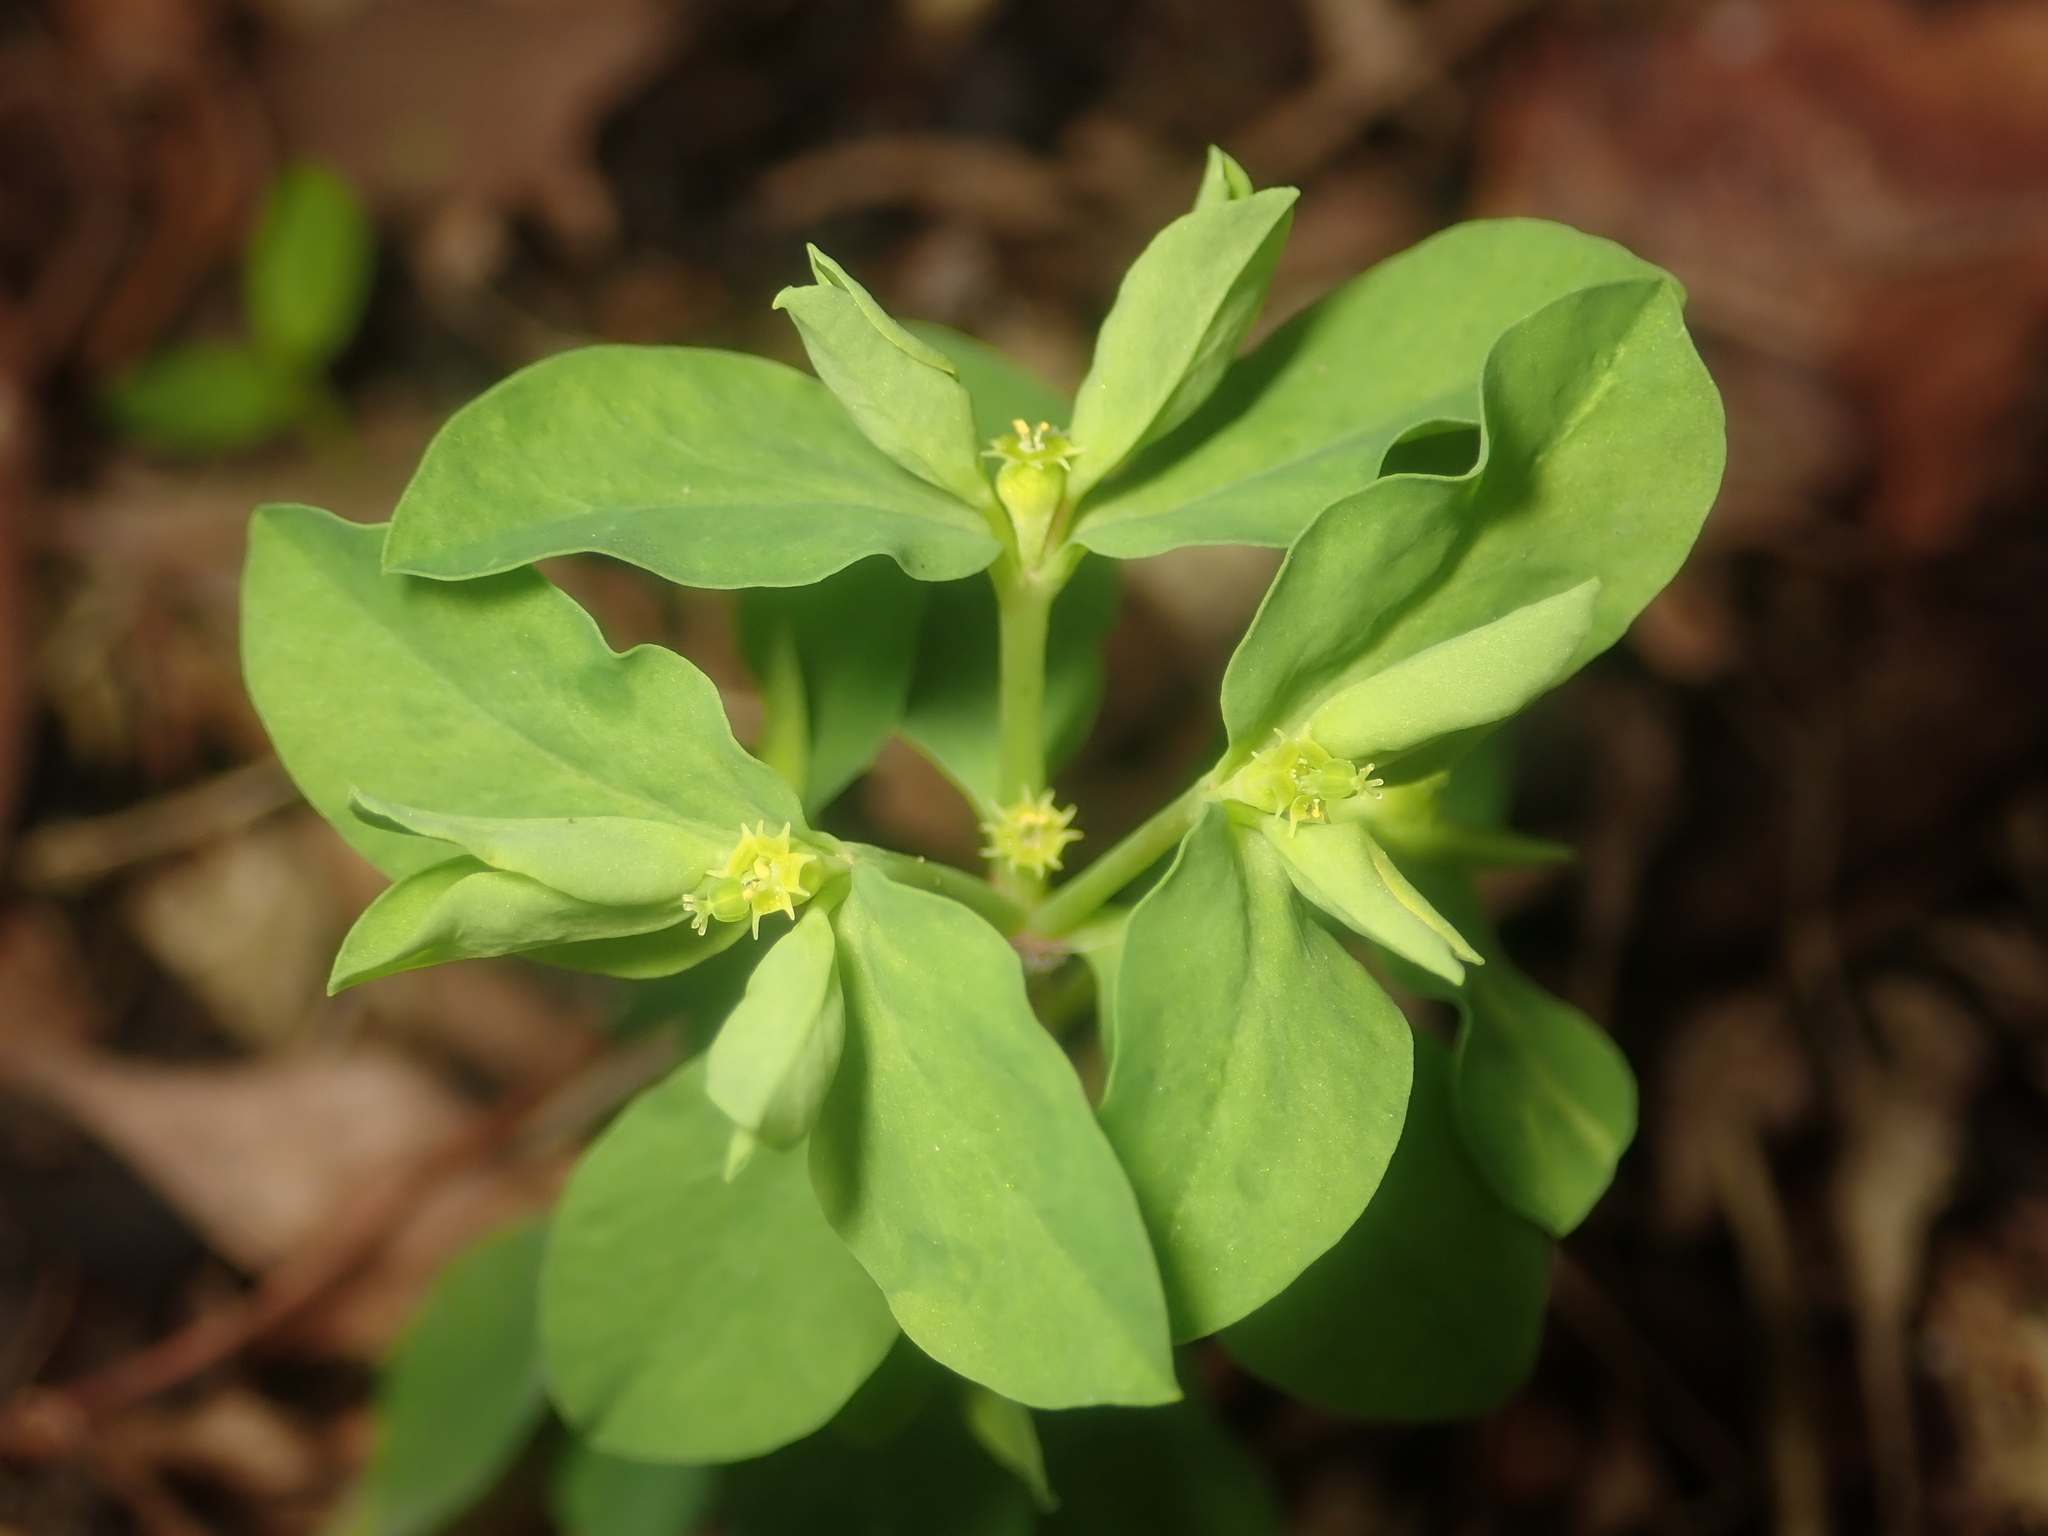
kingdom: Plantae
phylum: Tracheophyta
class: Magnoliopsida
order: Malpighiales
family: Euphorbiaceae
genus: Euphorbia
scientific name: Euphorbia peplus
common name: Petty spurge
